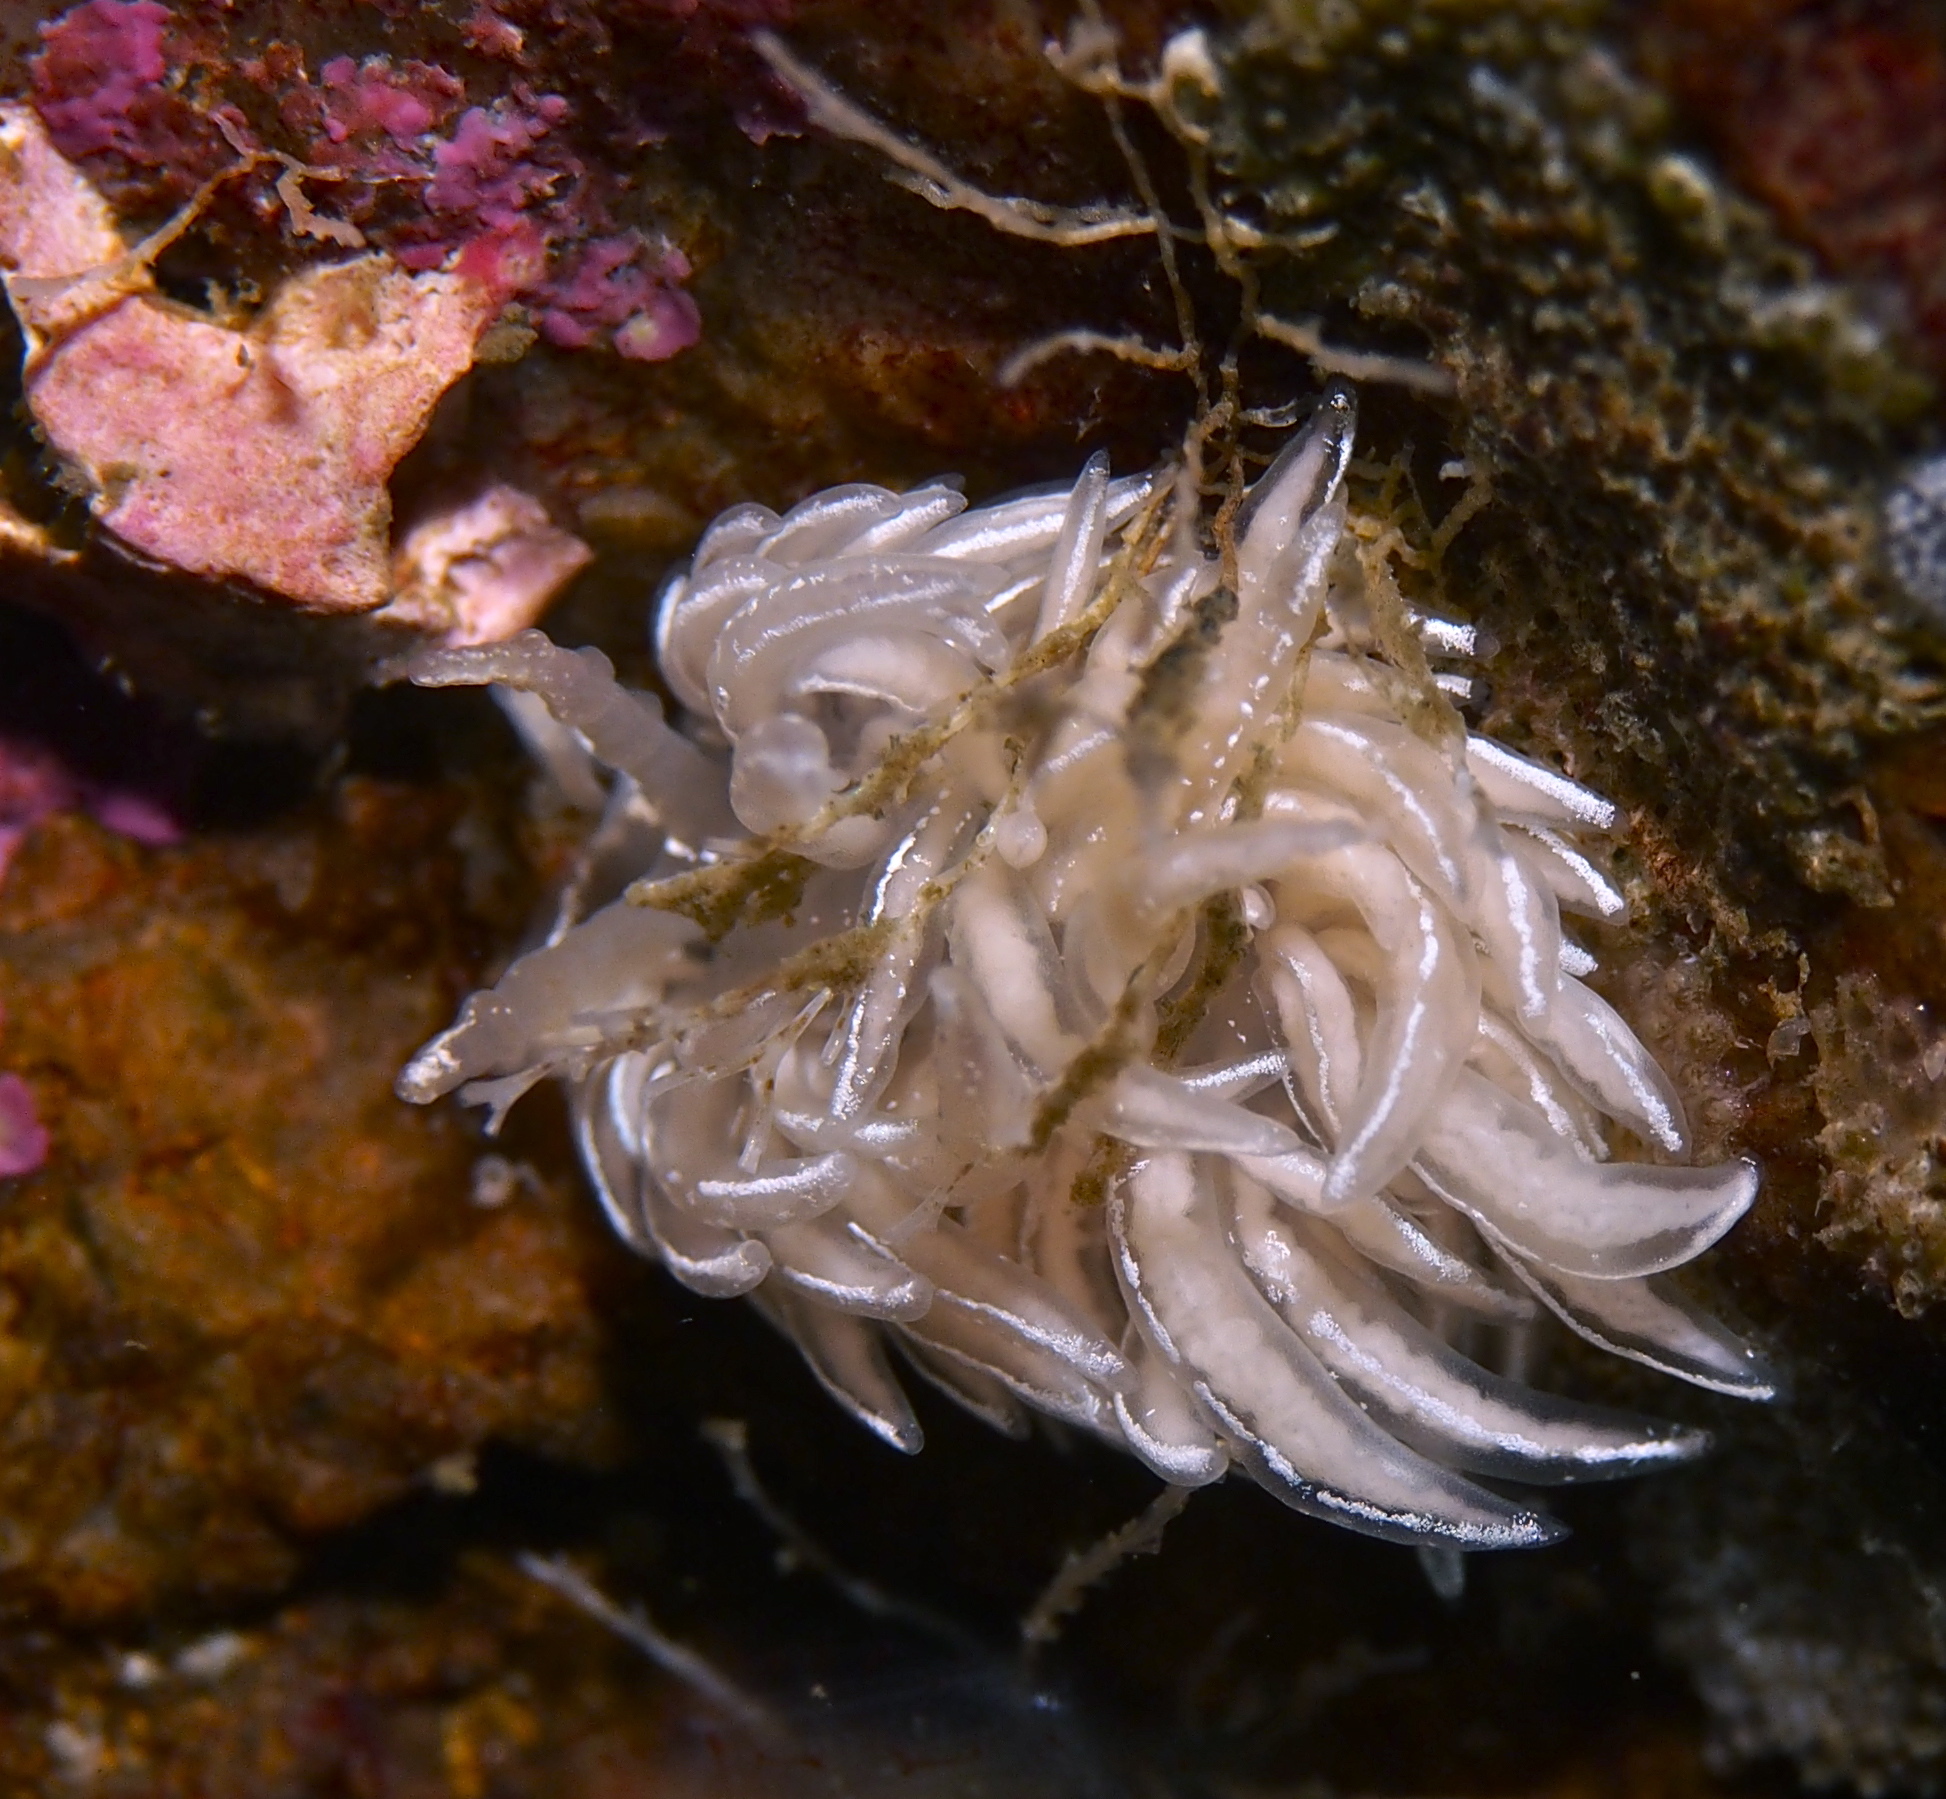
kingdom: Animalia
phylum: Mollusca
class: Gastropoda
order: Nudibranchia
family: Facelinidae
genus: Favorinus
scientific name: Favorinus blianus
